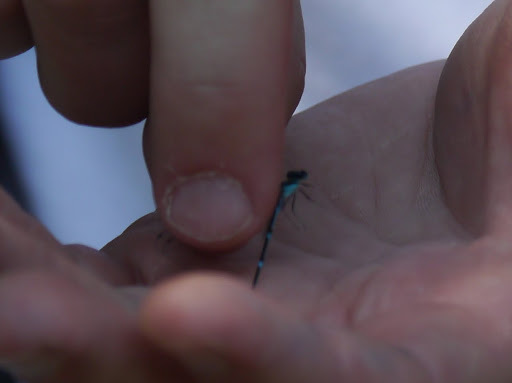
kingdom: Animalia
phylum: Arthropoda
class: Insecta
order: Odonata
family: Coenagrionidae
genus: Enallagma
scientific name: Enallagma exsulans
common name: Stream bluet
